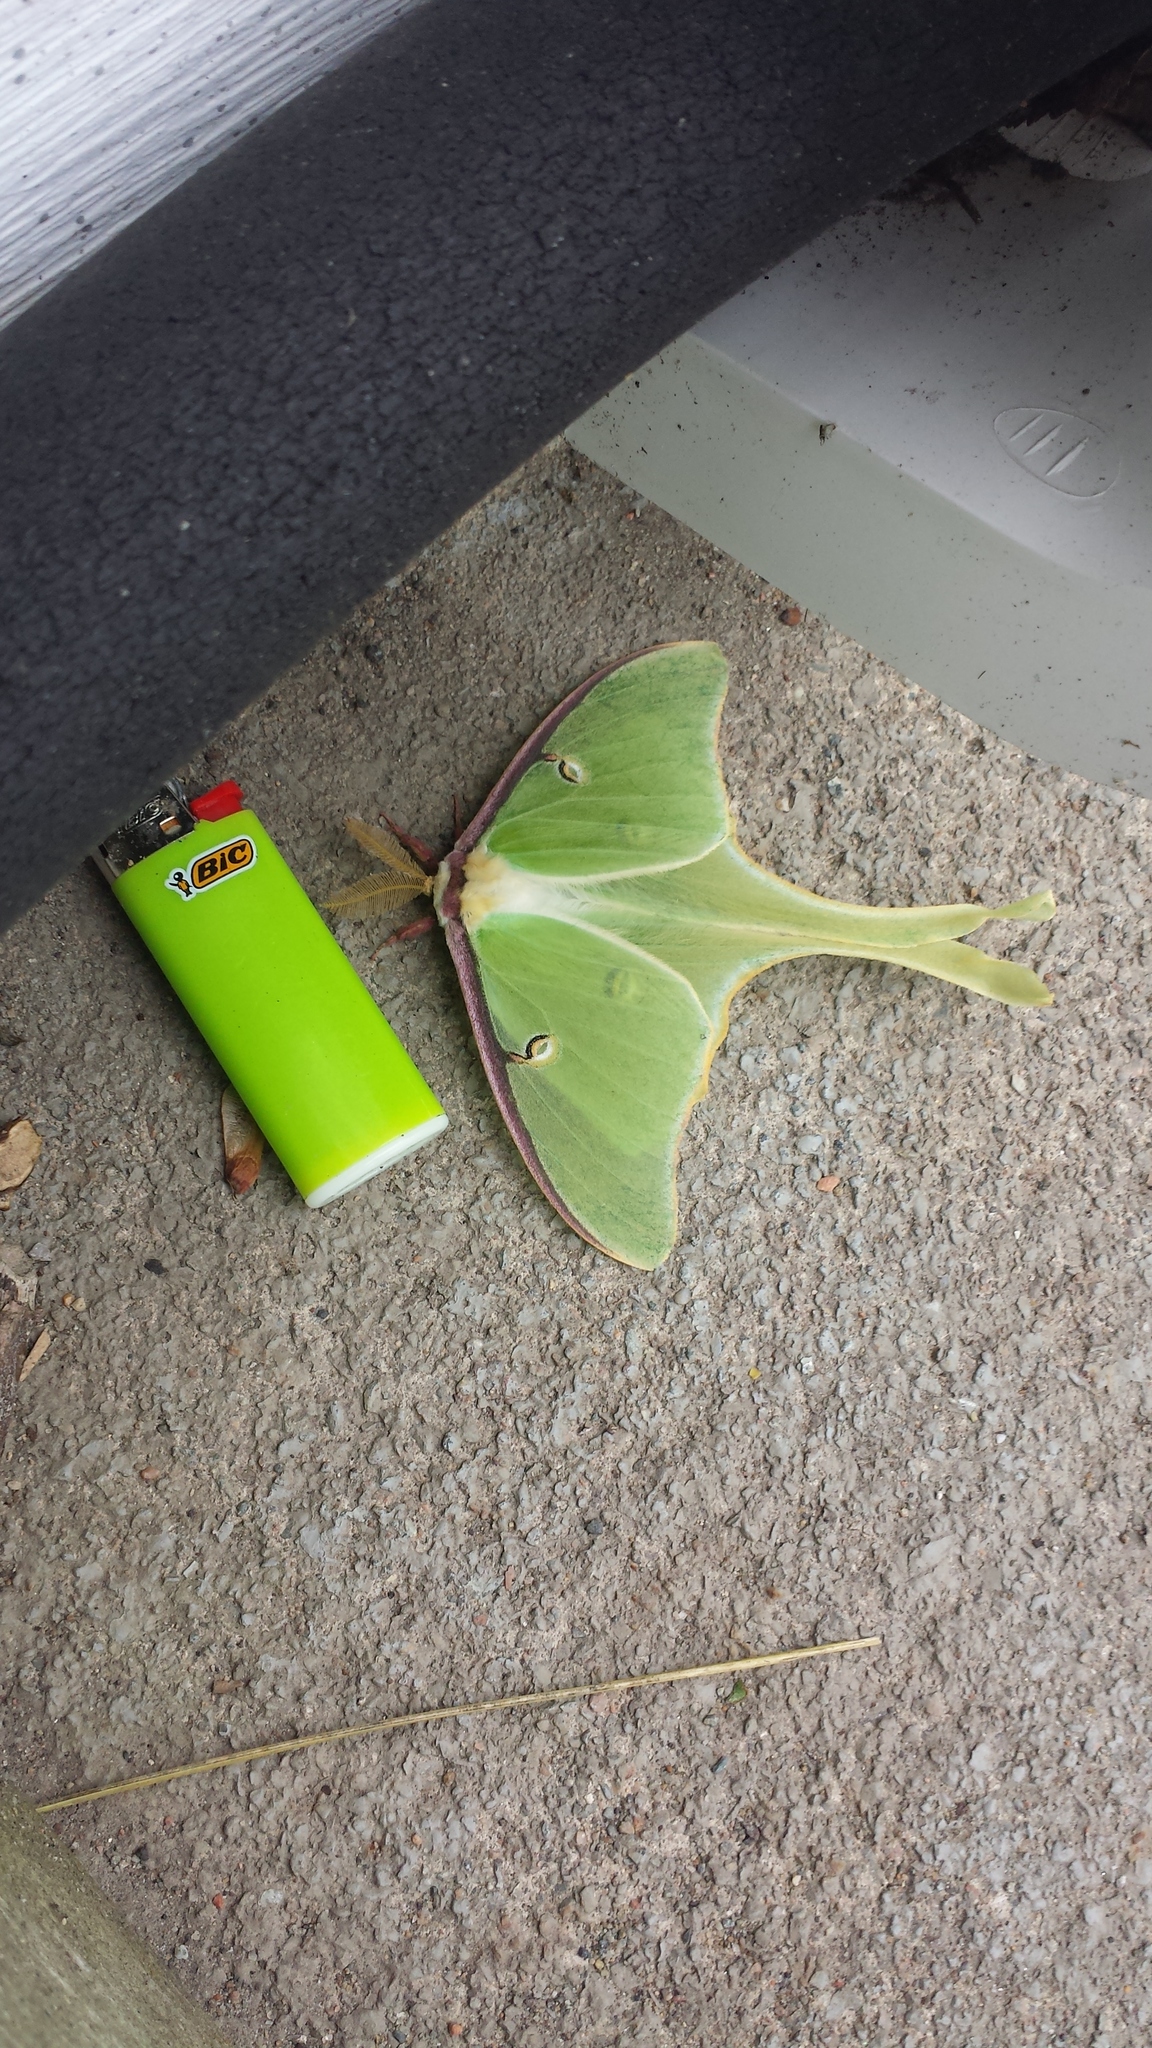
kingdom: Animalia
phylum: Arthropoda
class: Insecta
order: Lepidoptera
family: Saturniidae
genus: Actias
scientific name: Actias luna
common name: Luna moth
